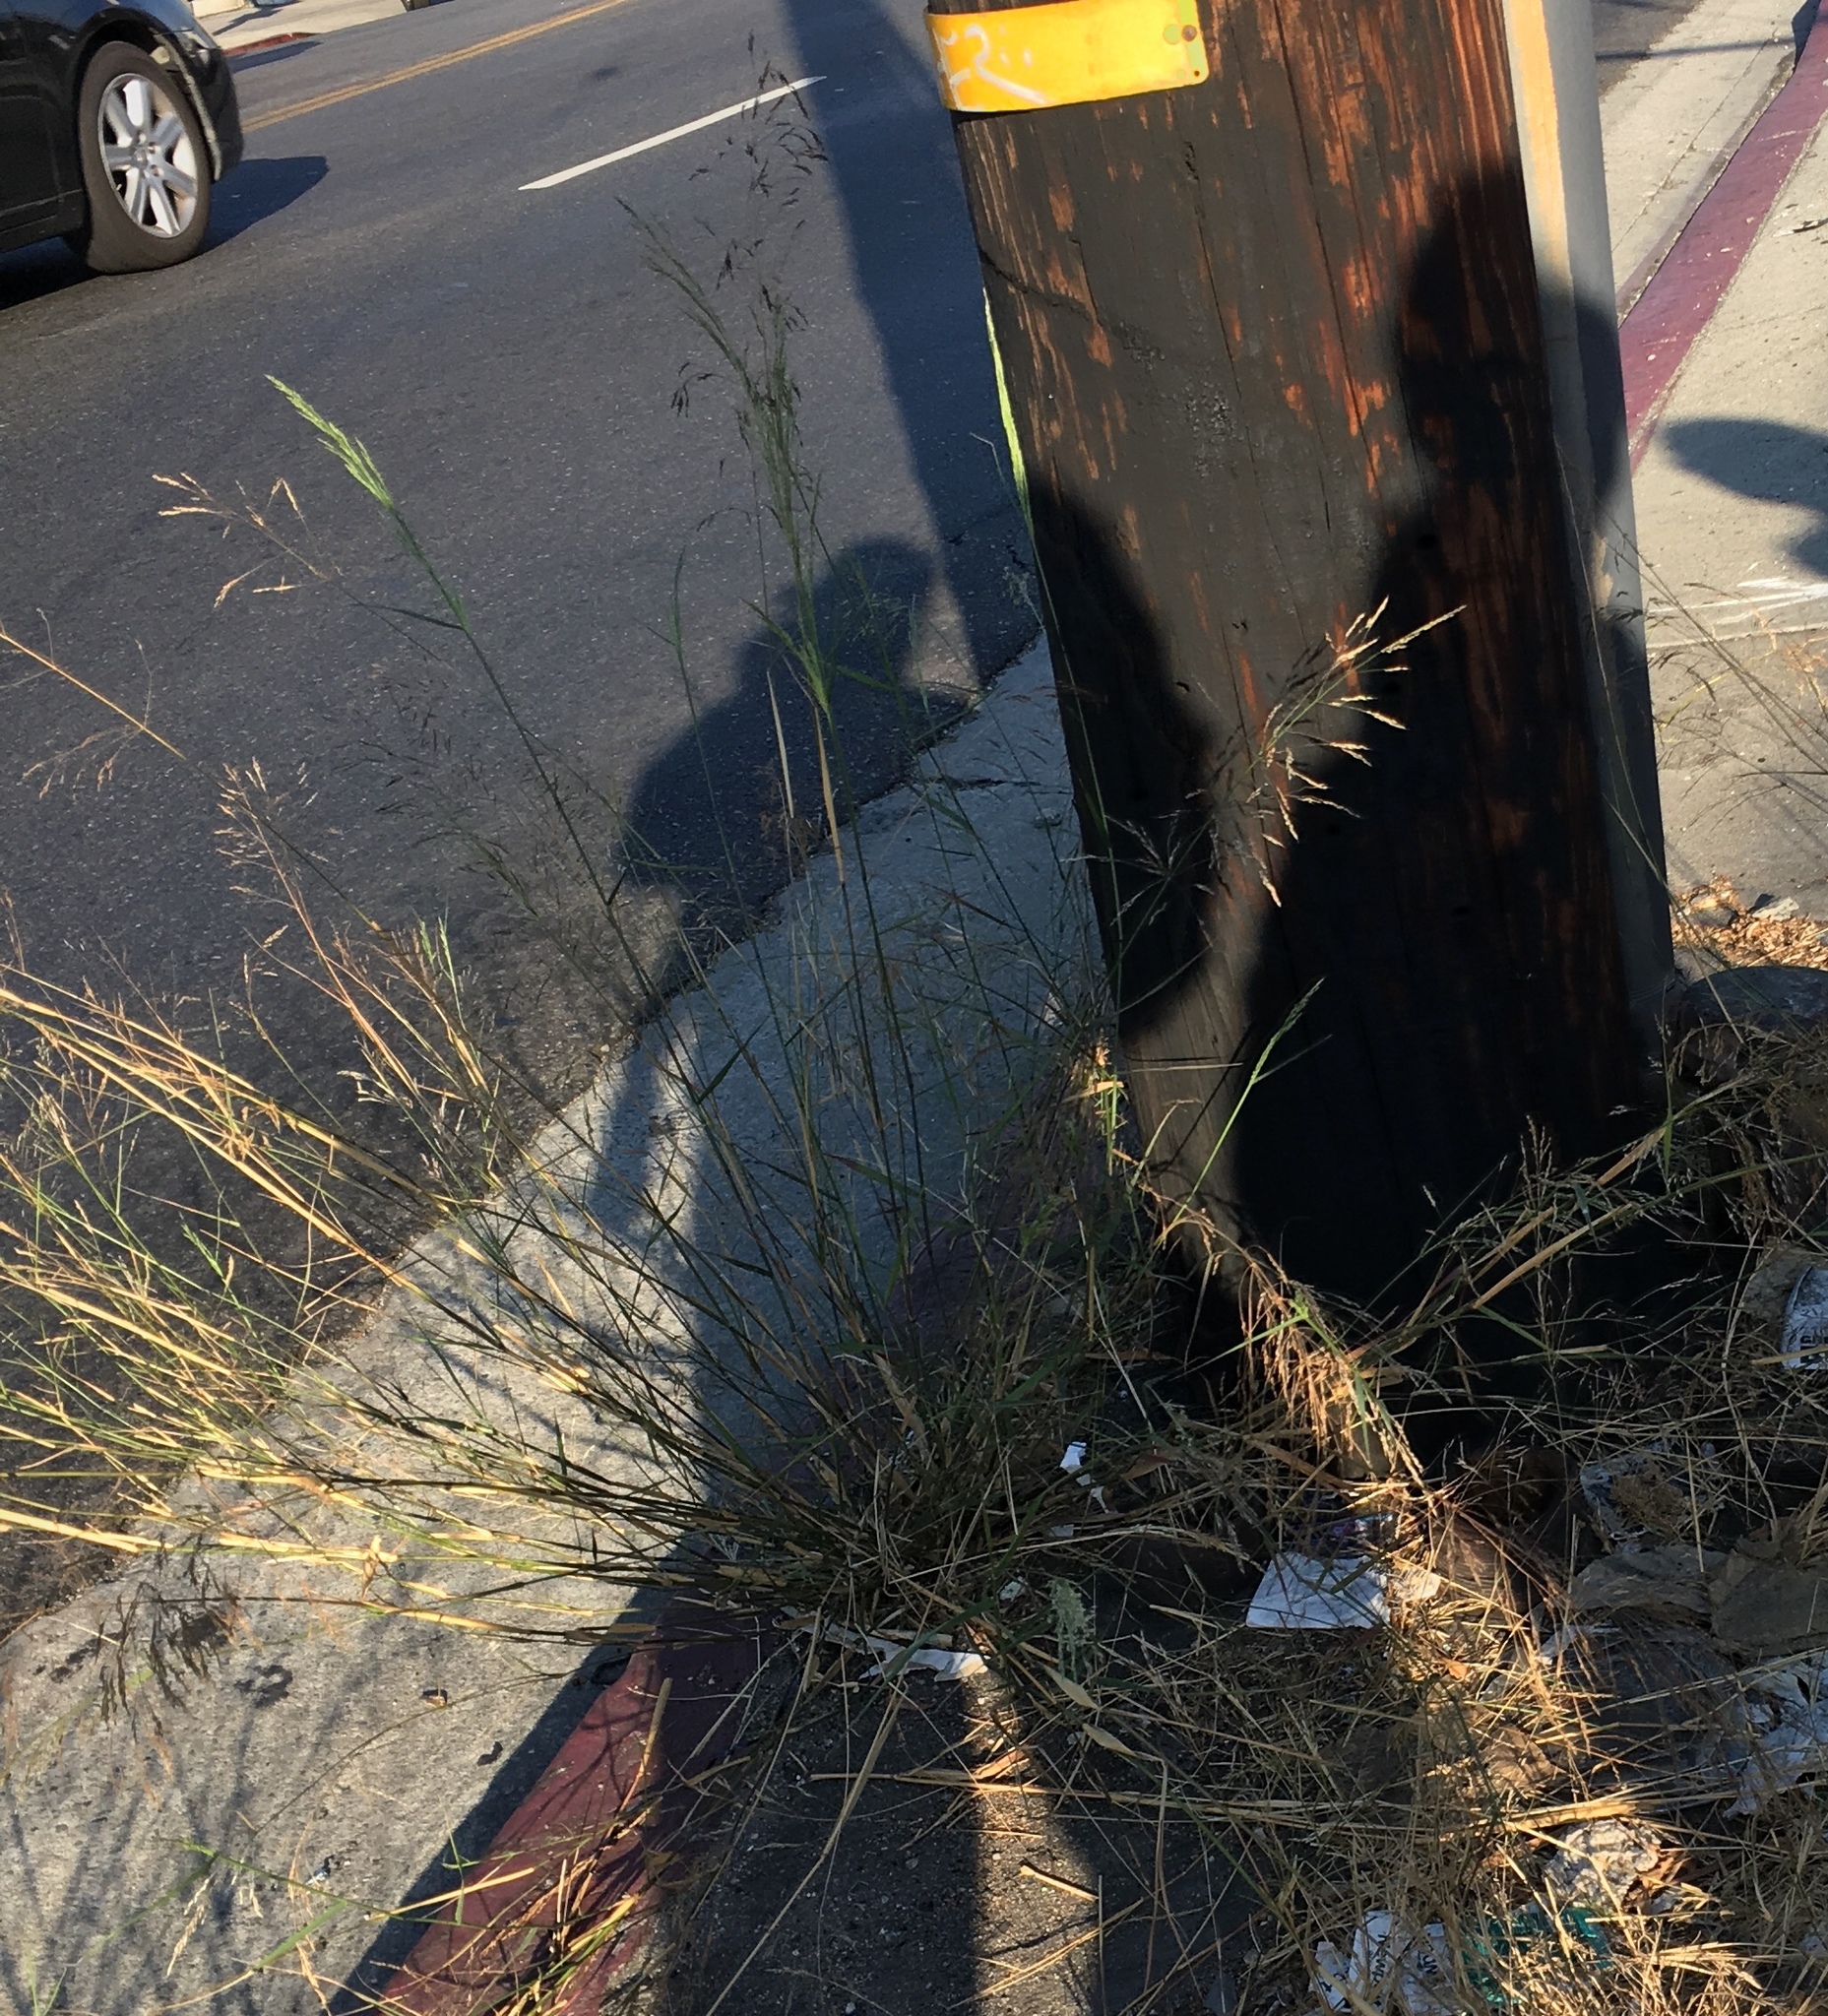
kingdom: Plantae
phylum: Tracheophyta
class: Liliopsida
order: Poales
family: Poaceae
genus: Oloptum
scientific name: Oloptum miliaceum
